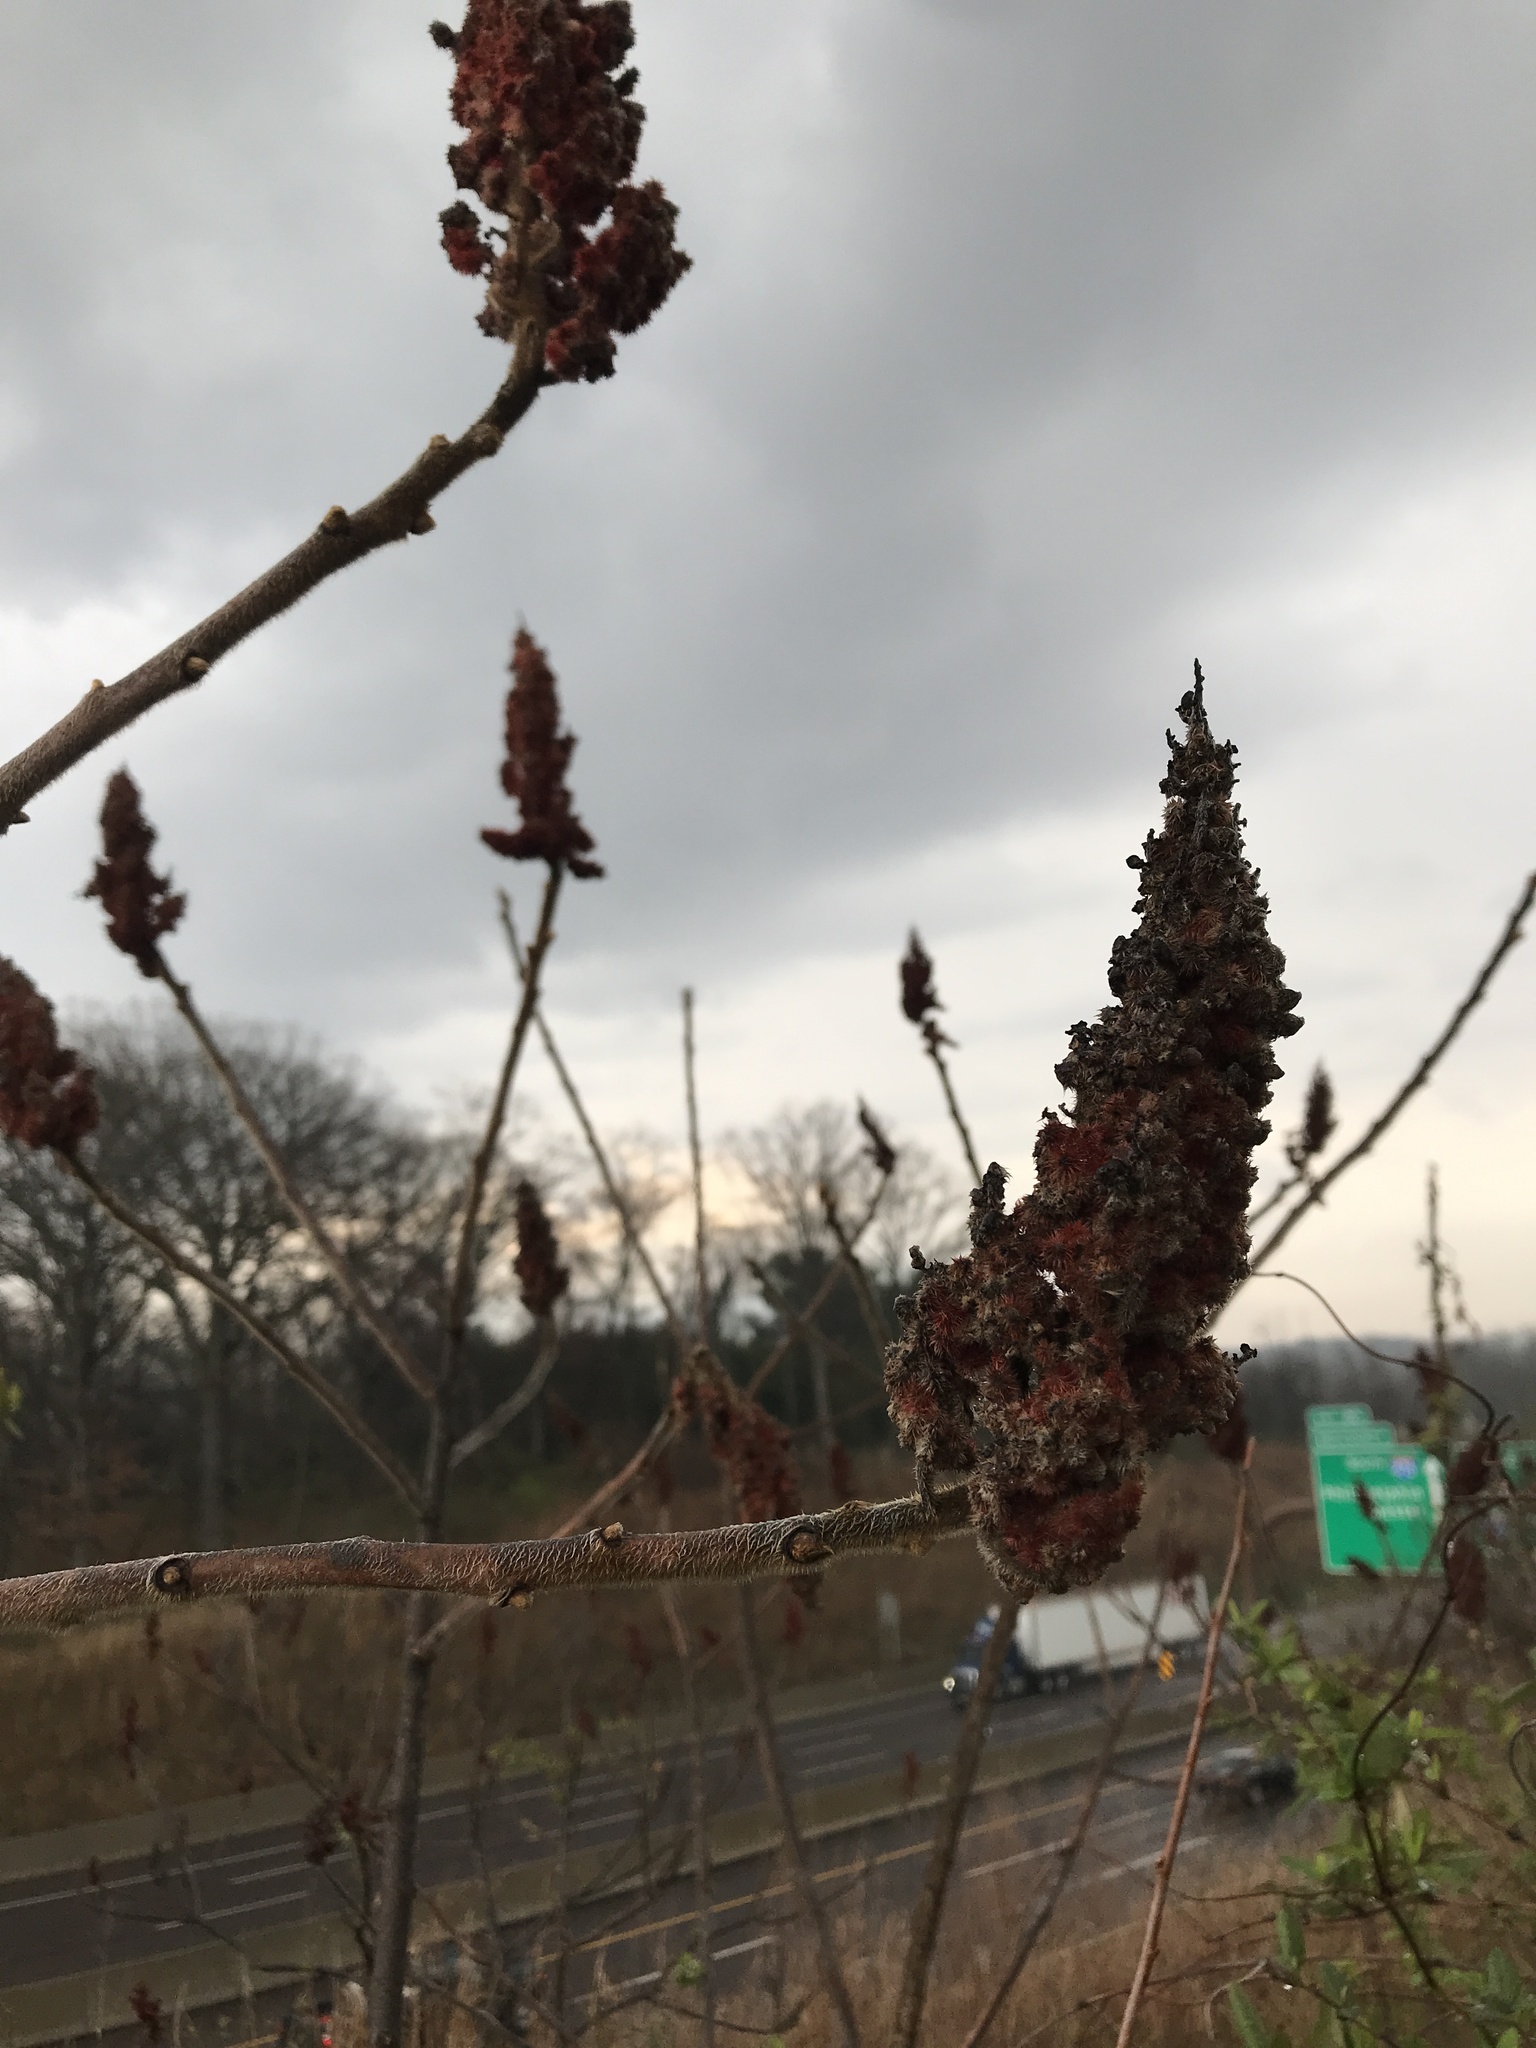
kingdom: Plantae
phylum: Tracheophyta
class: Magnoliopsida
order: Sapindales
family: Anacardiaceae
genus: Rhus
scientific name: Rhus typhina
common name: Staghorn sumac
